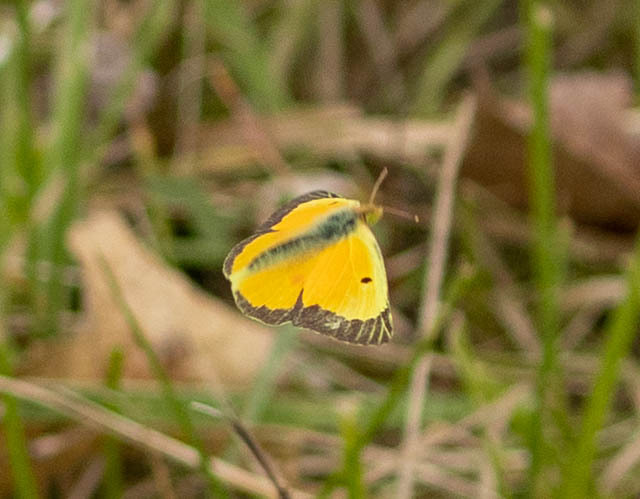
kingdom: Animalia
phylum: Arthropoda
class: Insecta
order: Lepidoptera
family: Pieridae
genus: Colias
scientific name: Colias eurytheme
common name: Alfalfa butterfly
